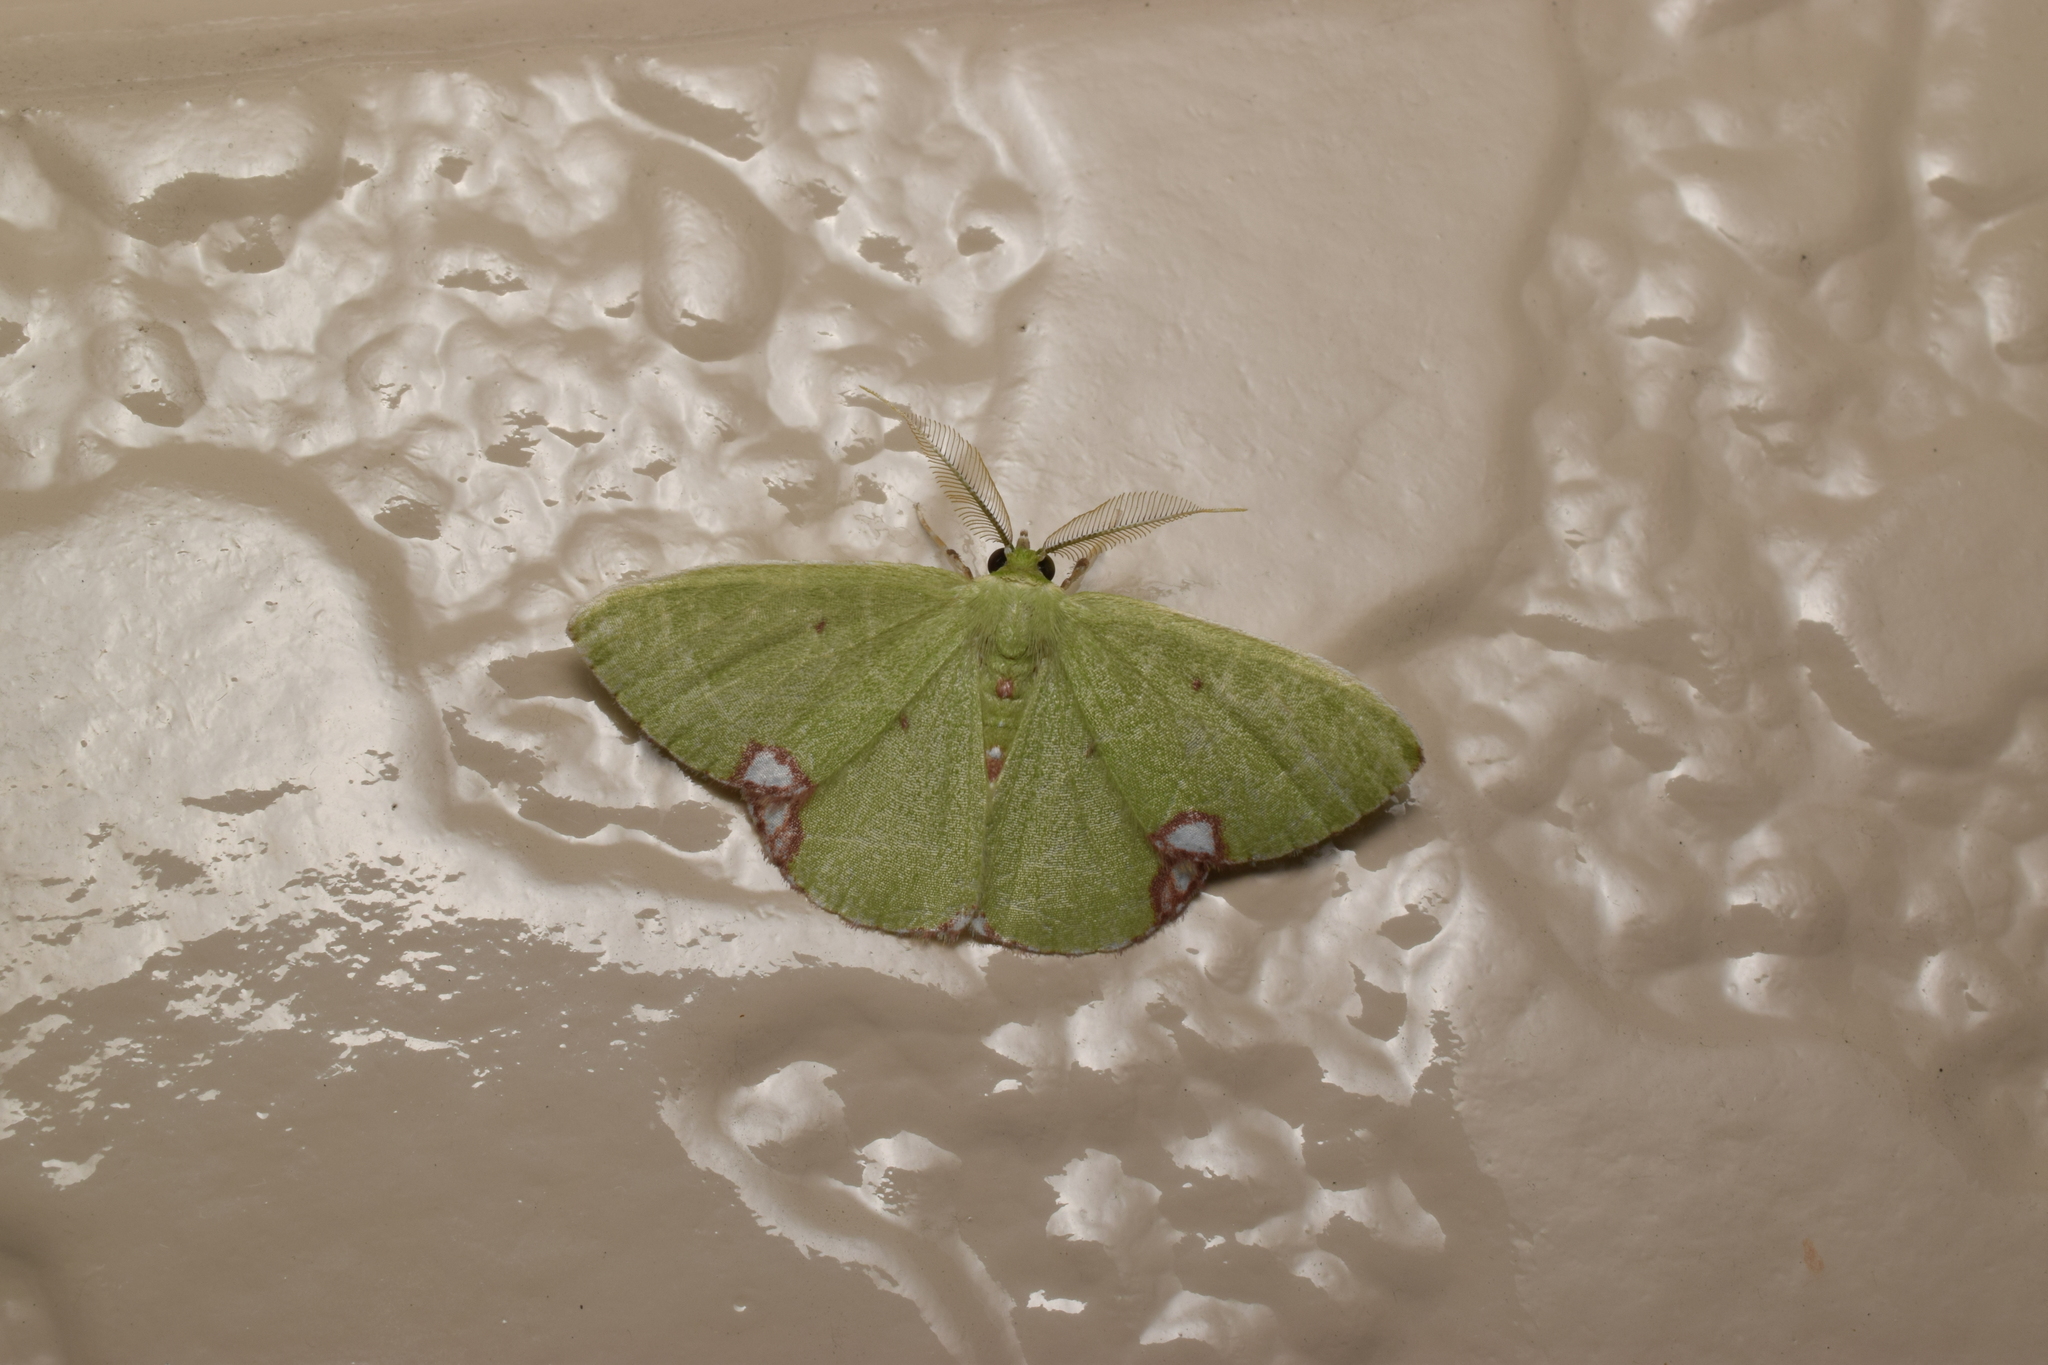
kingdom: Animalia
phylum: Arthropoda
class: Insecta
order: Lepidoptera
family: Geometridae
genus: Comibaena
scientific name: Comibaena procumbaria
